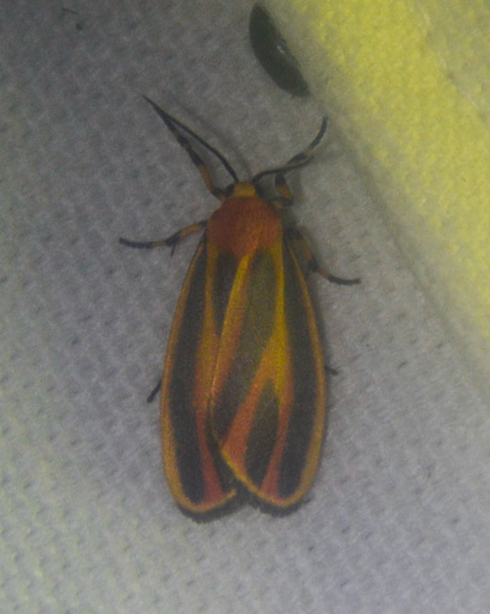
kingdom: Animalia
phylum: Arthropoda
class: Insecta
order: Lepidoptera
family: Erebidae
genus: Hypoprepia
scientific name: Hypoprepia fucosa
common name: Painted lichen moth
